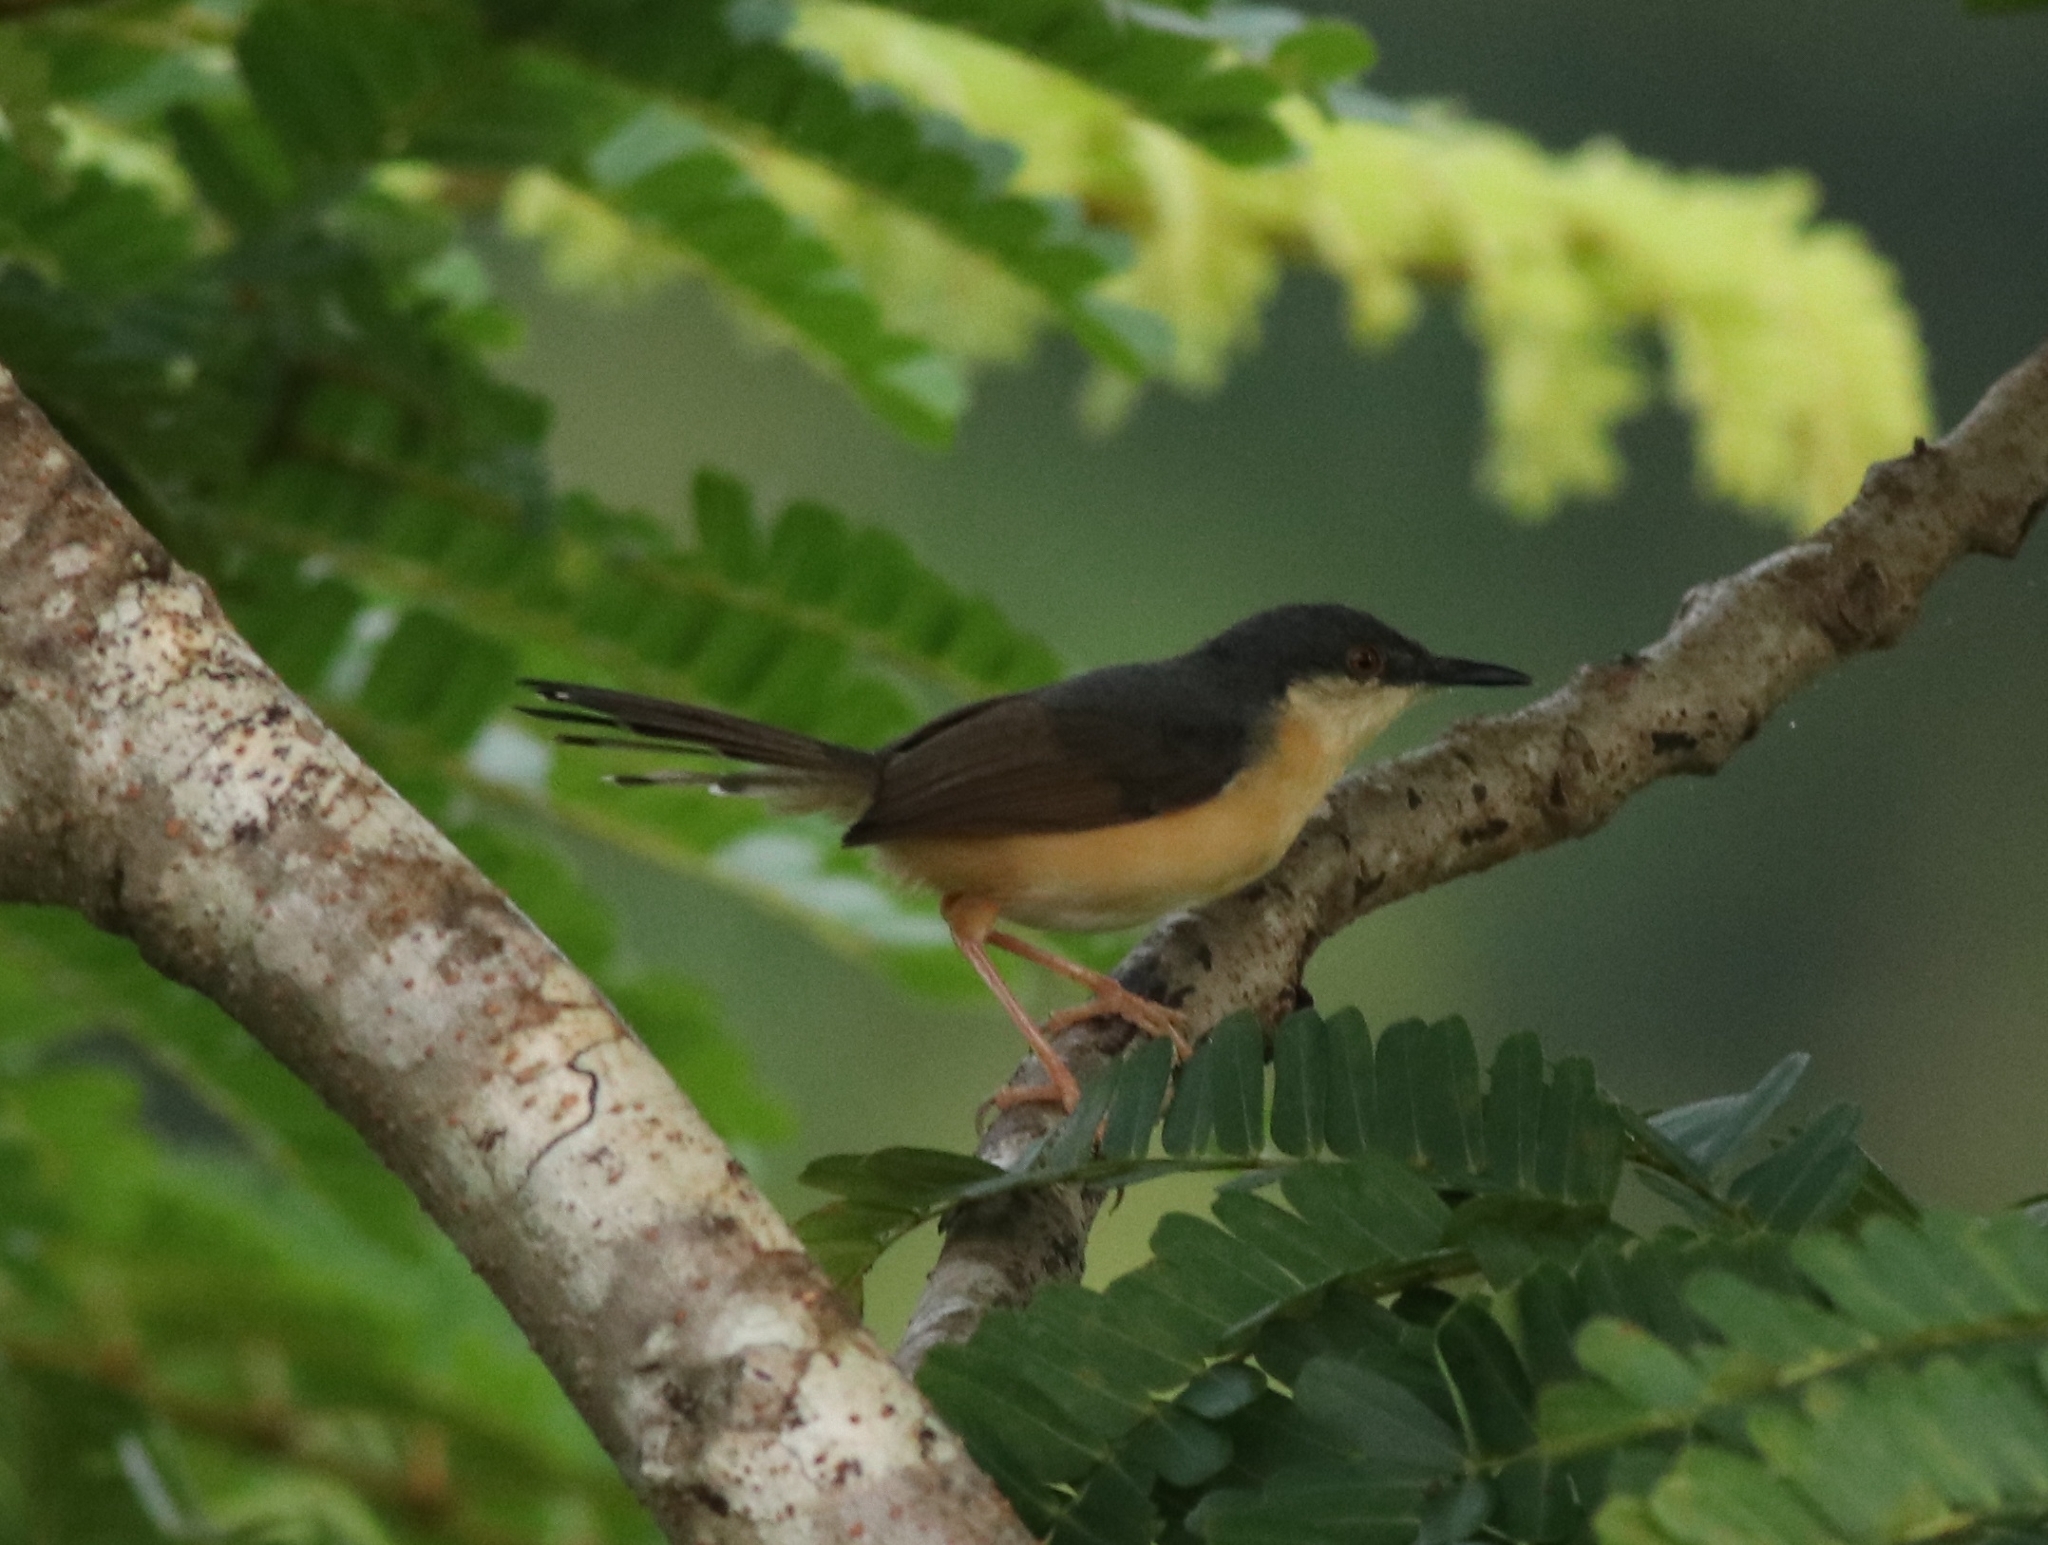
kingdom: Animalia
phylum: Chordata
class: Aves
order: Passeriformes
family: Cisticolidae
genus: Prinia
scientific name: Prinia socialis
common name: Ashy prinia
